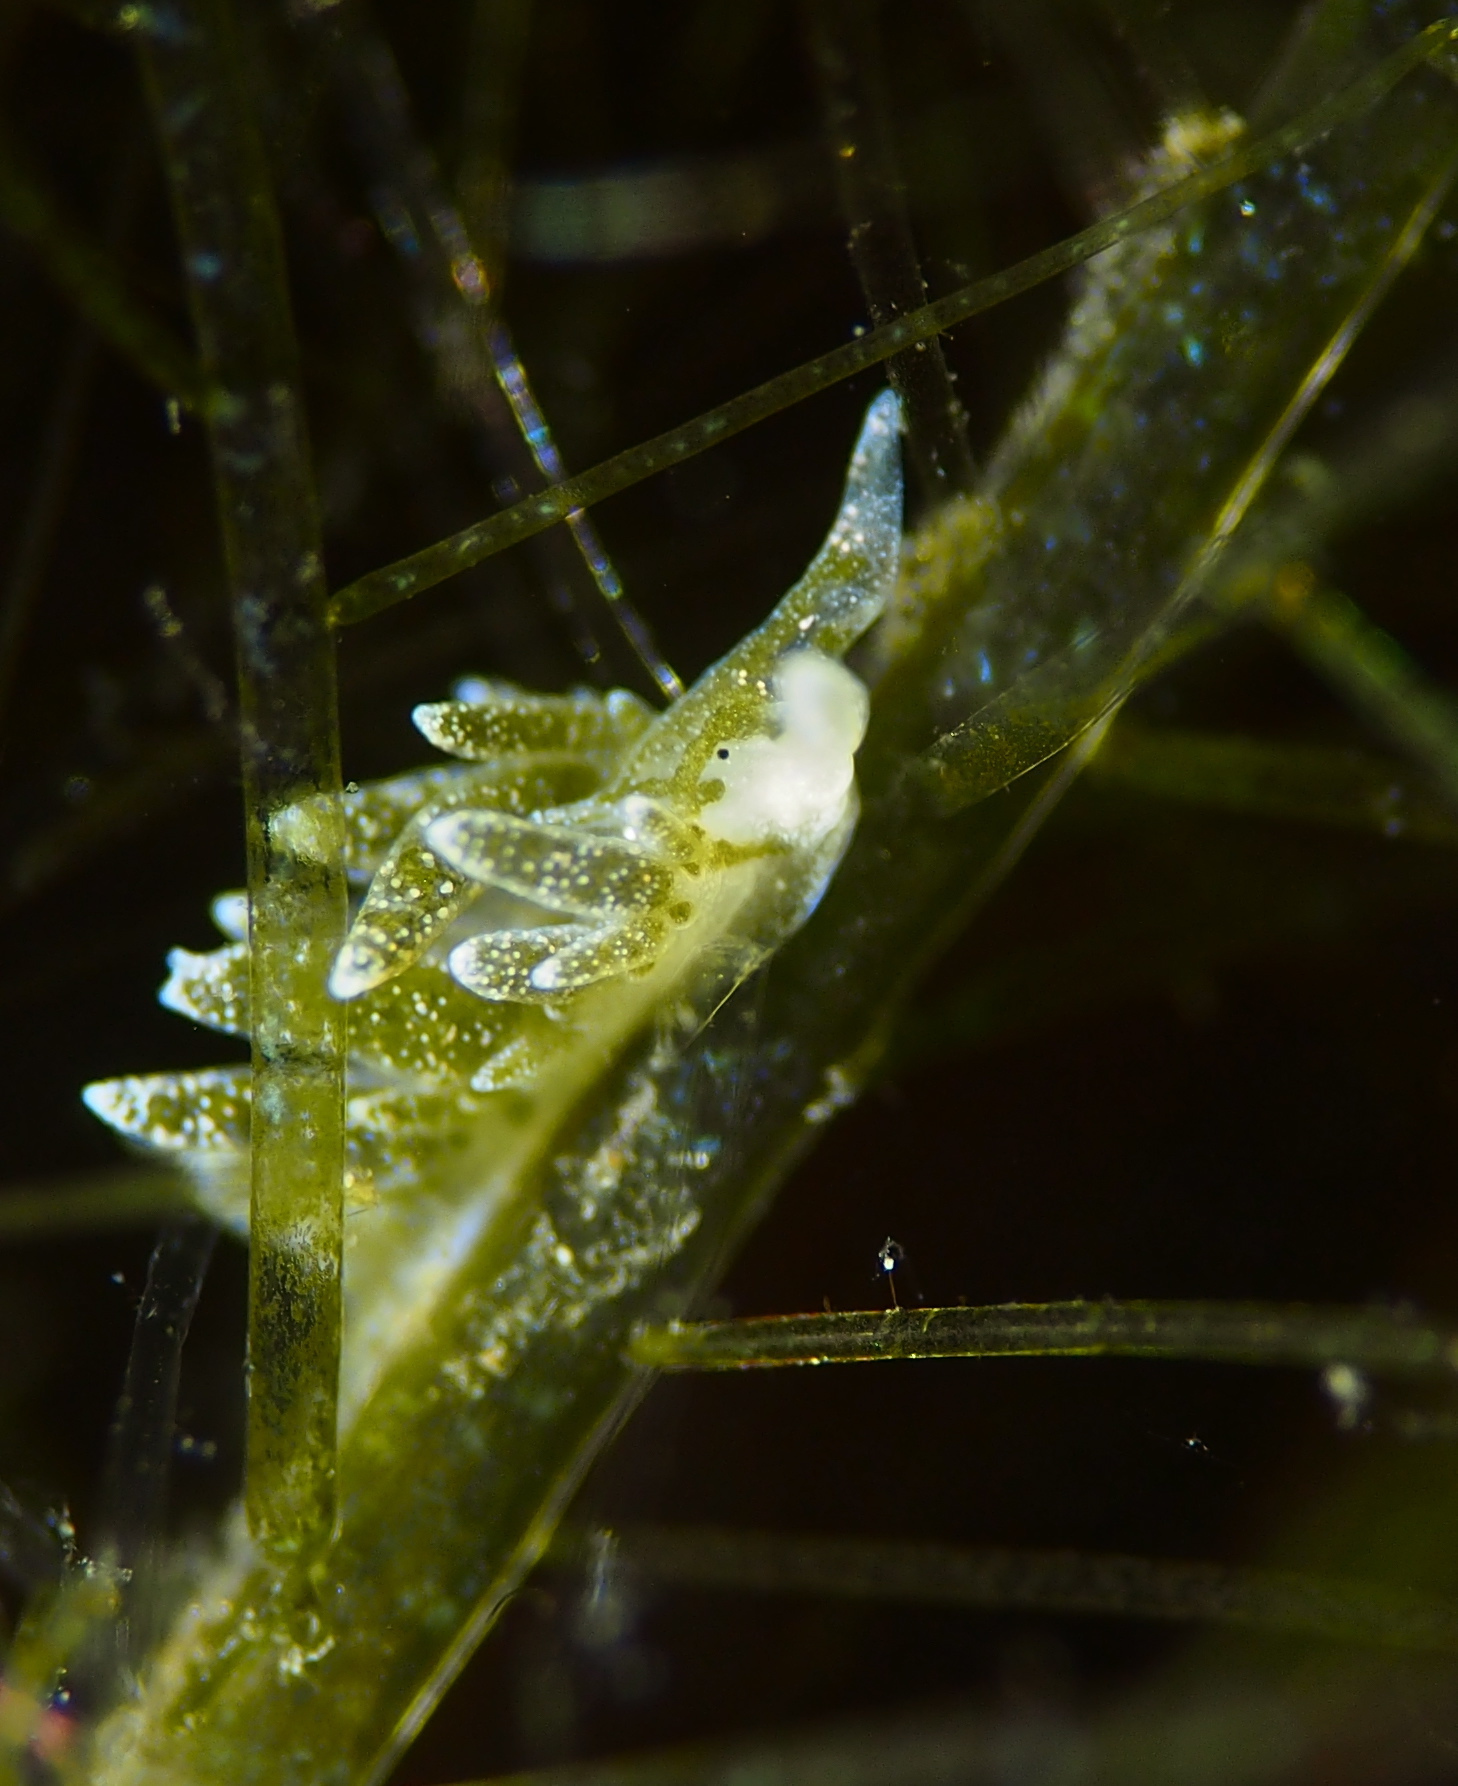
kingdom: Animalia
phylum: Mollusca
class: Gastropoda
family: Limapontiidae
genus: Placida
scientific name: Placida dendritica
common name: Dendritic nudibranch
